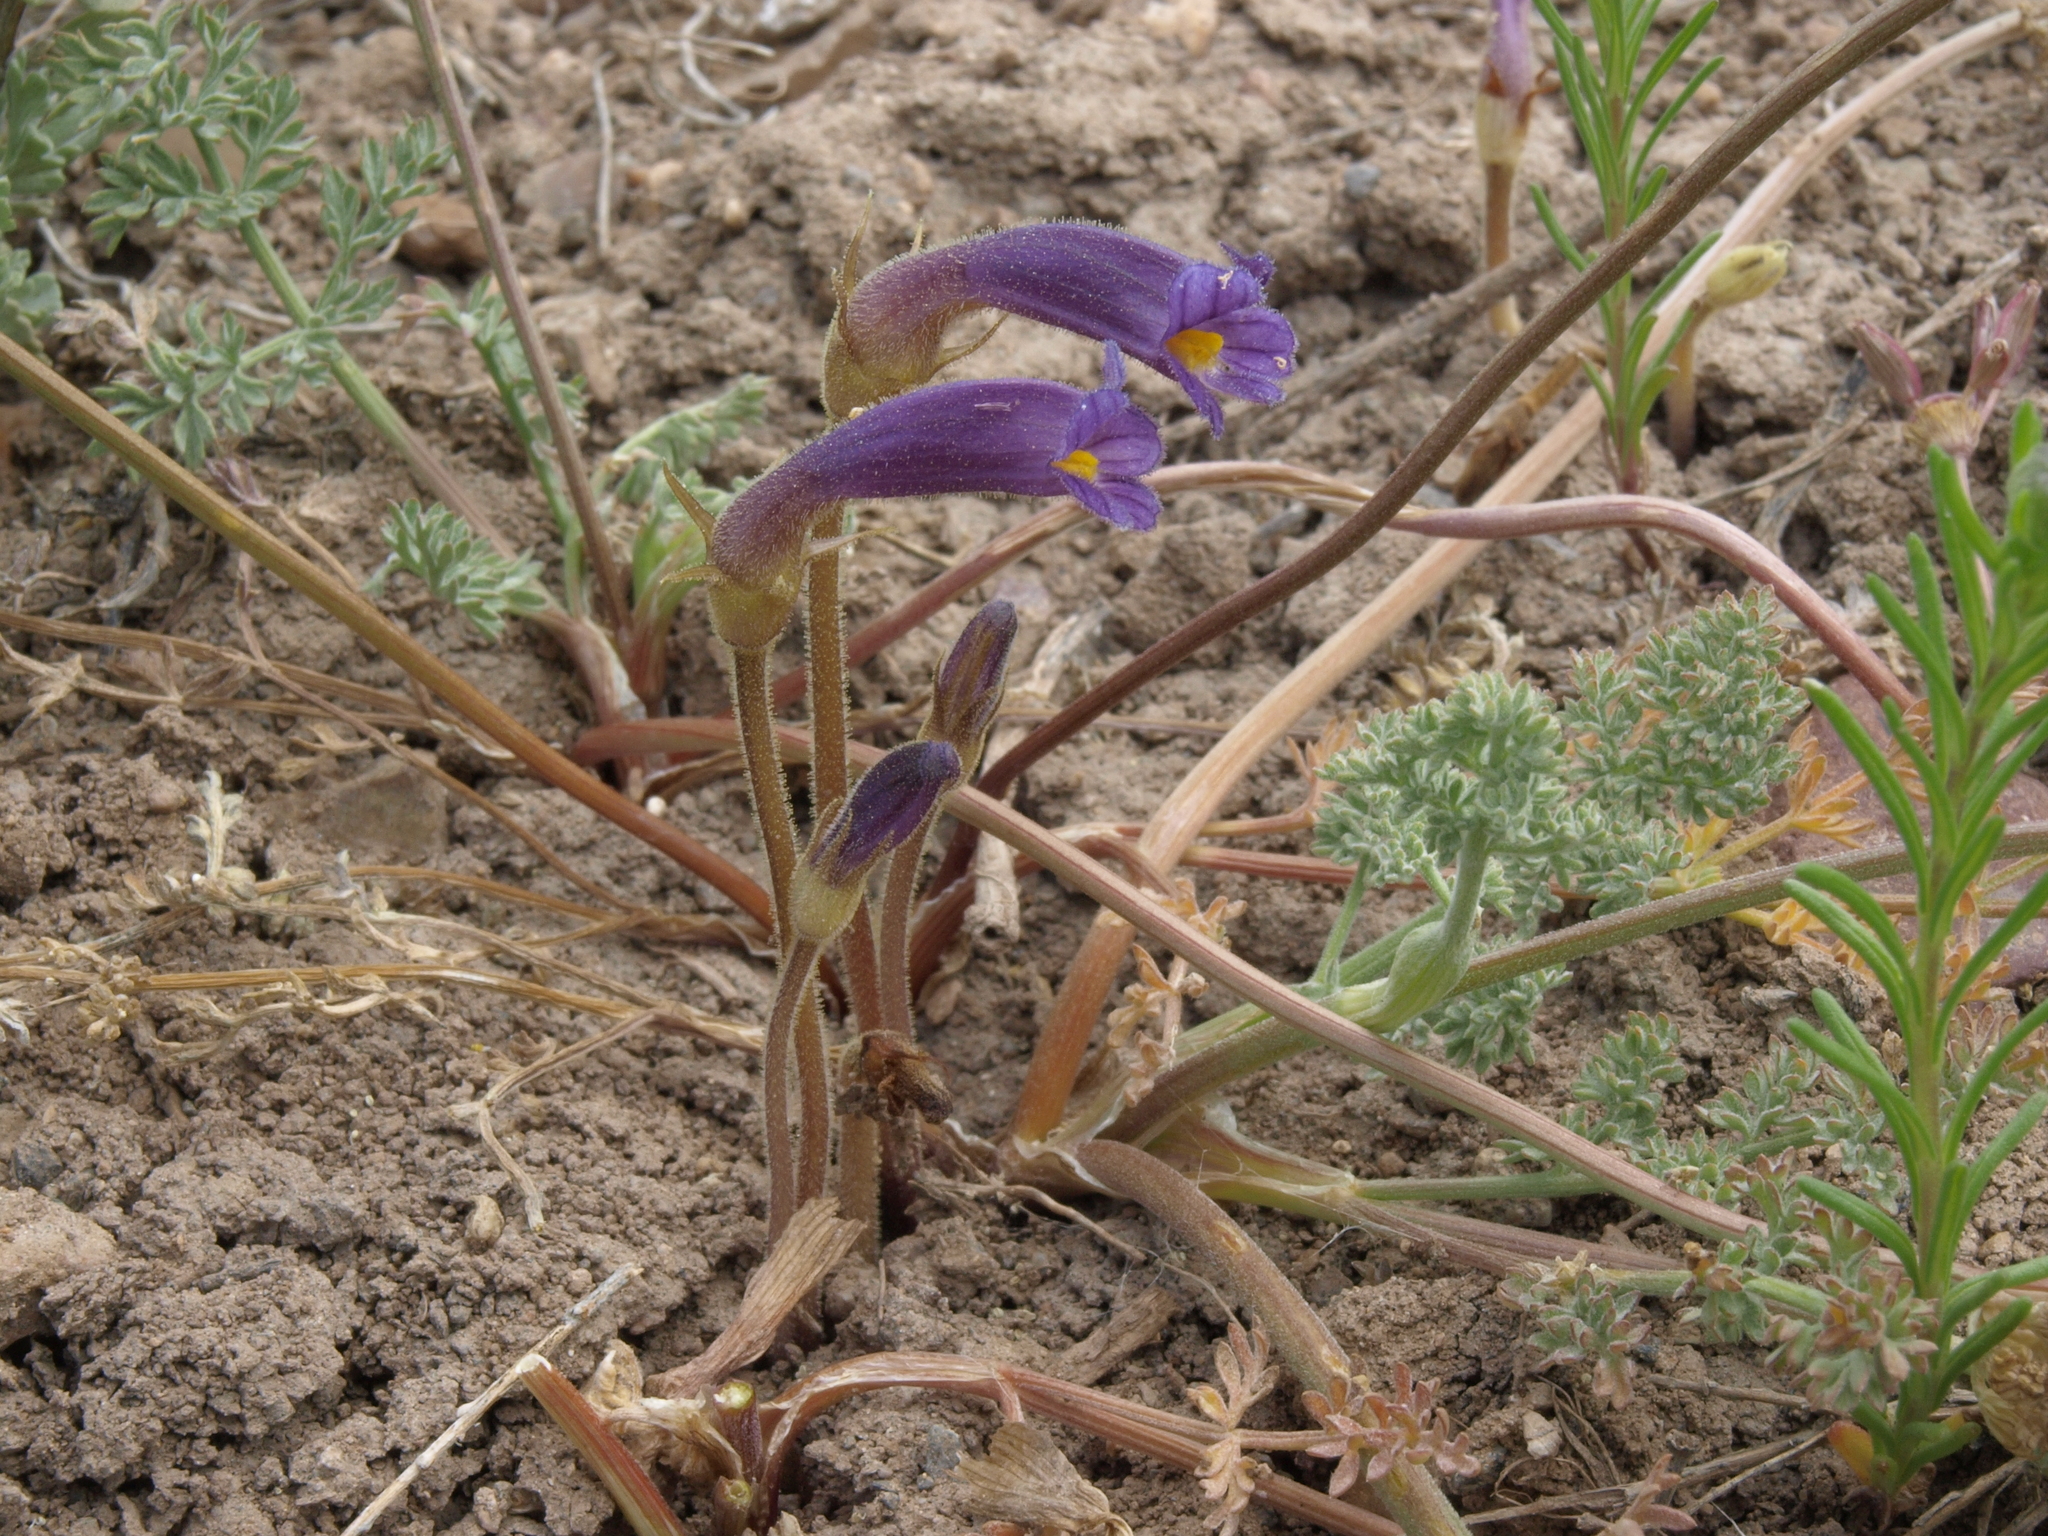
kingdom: Plantae
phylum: Tracheophyta
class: Magnoliopsida
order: Lamiales
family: Orobanchaceae
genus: Aphyllon
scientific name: Aphyllon uniflorum
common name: One-flowered broomrape
